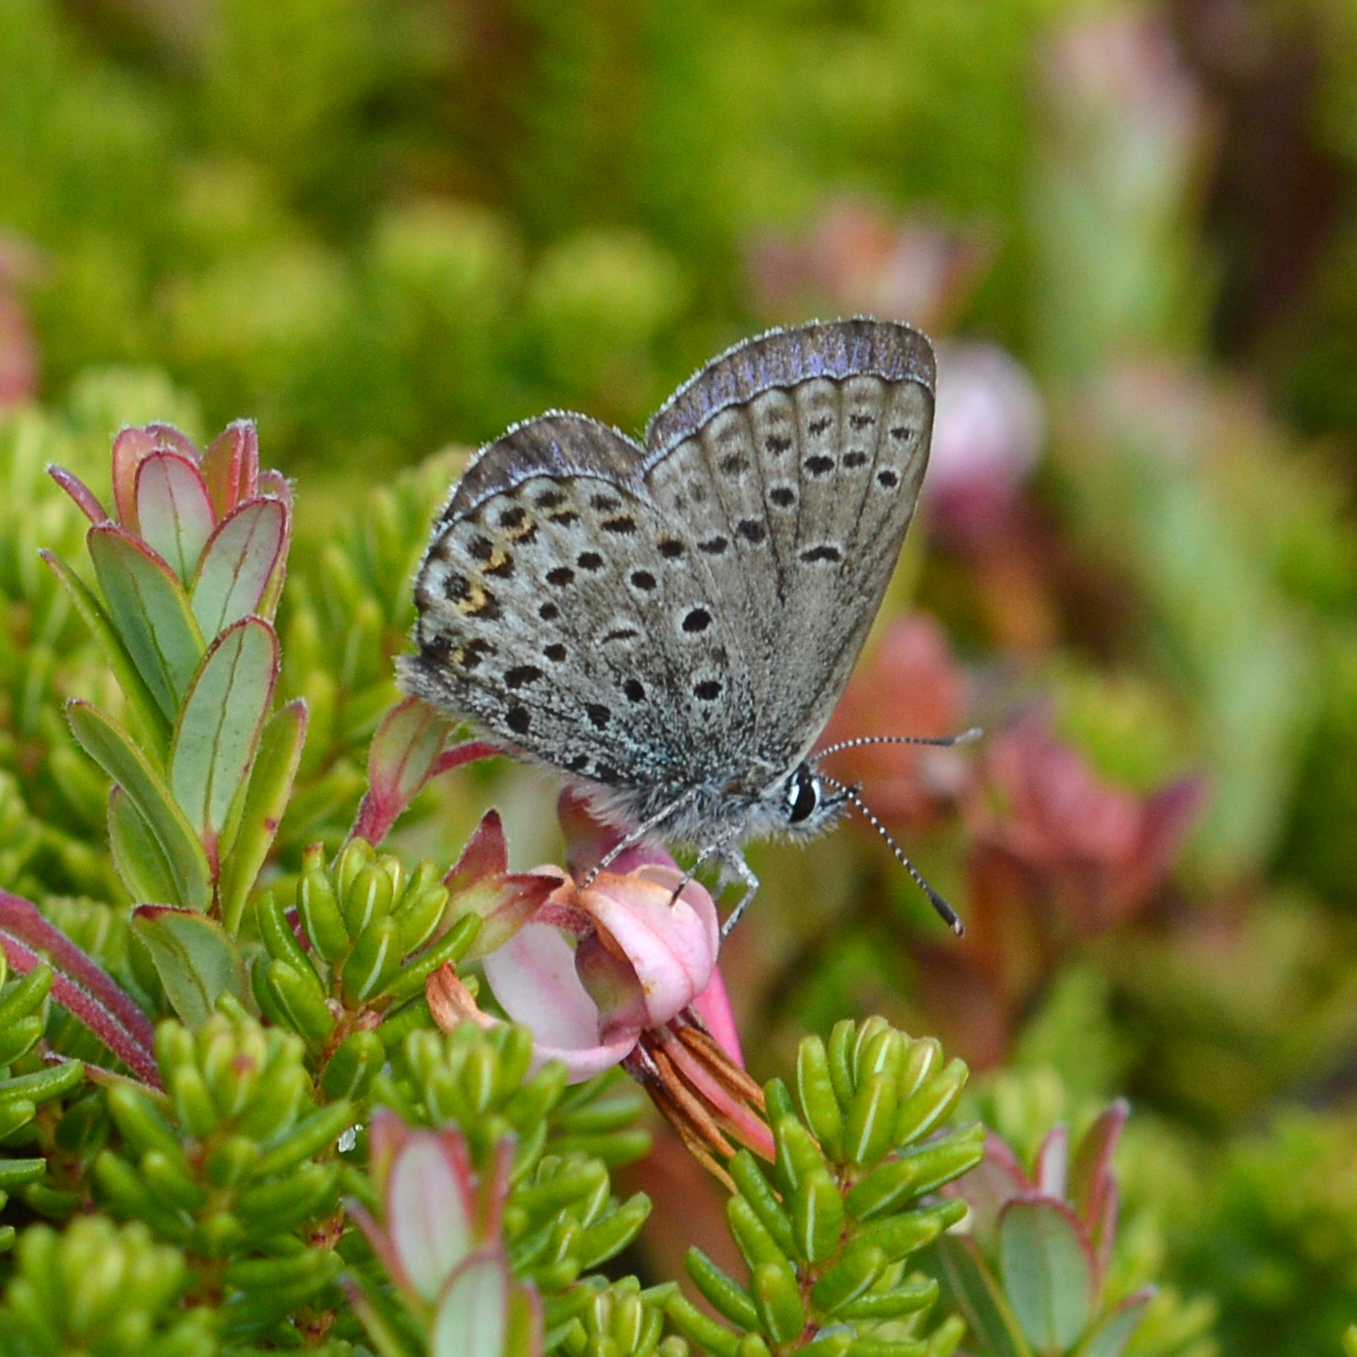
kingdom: Animalia
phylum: Arthropoda
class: Insecta
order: Lepidoptera
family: Lycaenidae
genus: Lycaeides
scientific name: Lycaeides idas
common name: Northern blue
